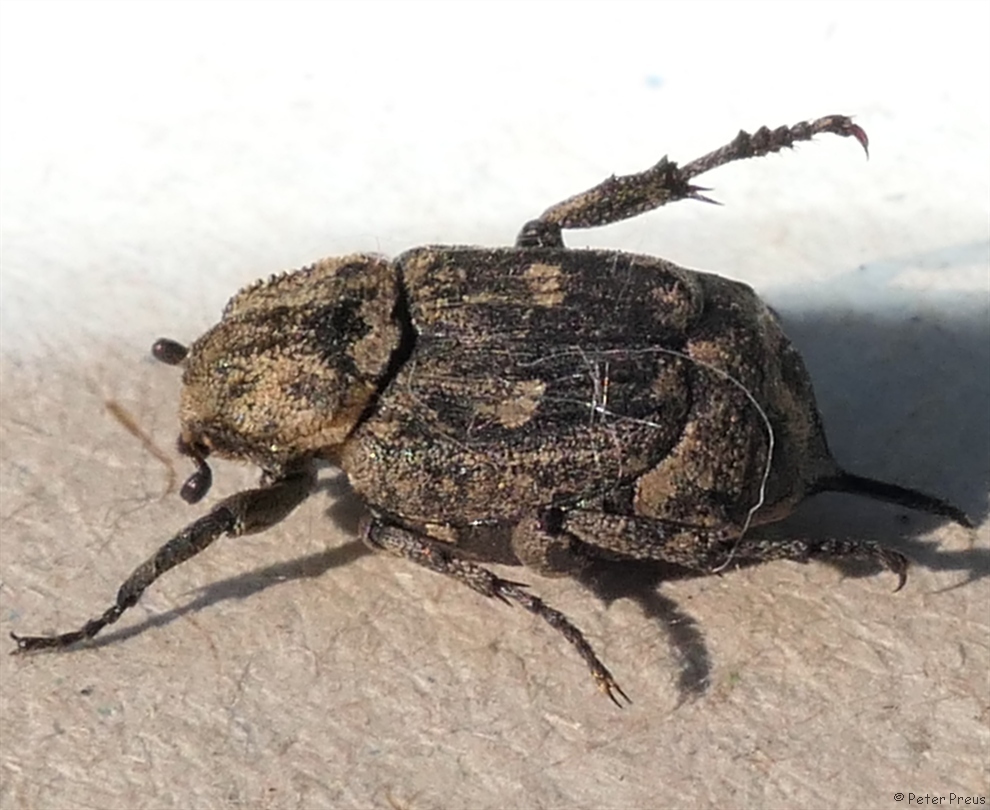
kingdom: Animalia
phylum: Arthropoda
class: Insecta
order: Coleoptera
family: Scarabaeidae
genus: Valgus
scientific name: Valgus hemipterus
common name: Bug flower chafer
